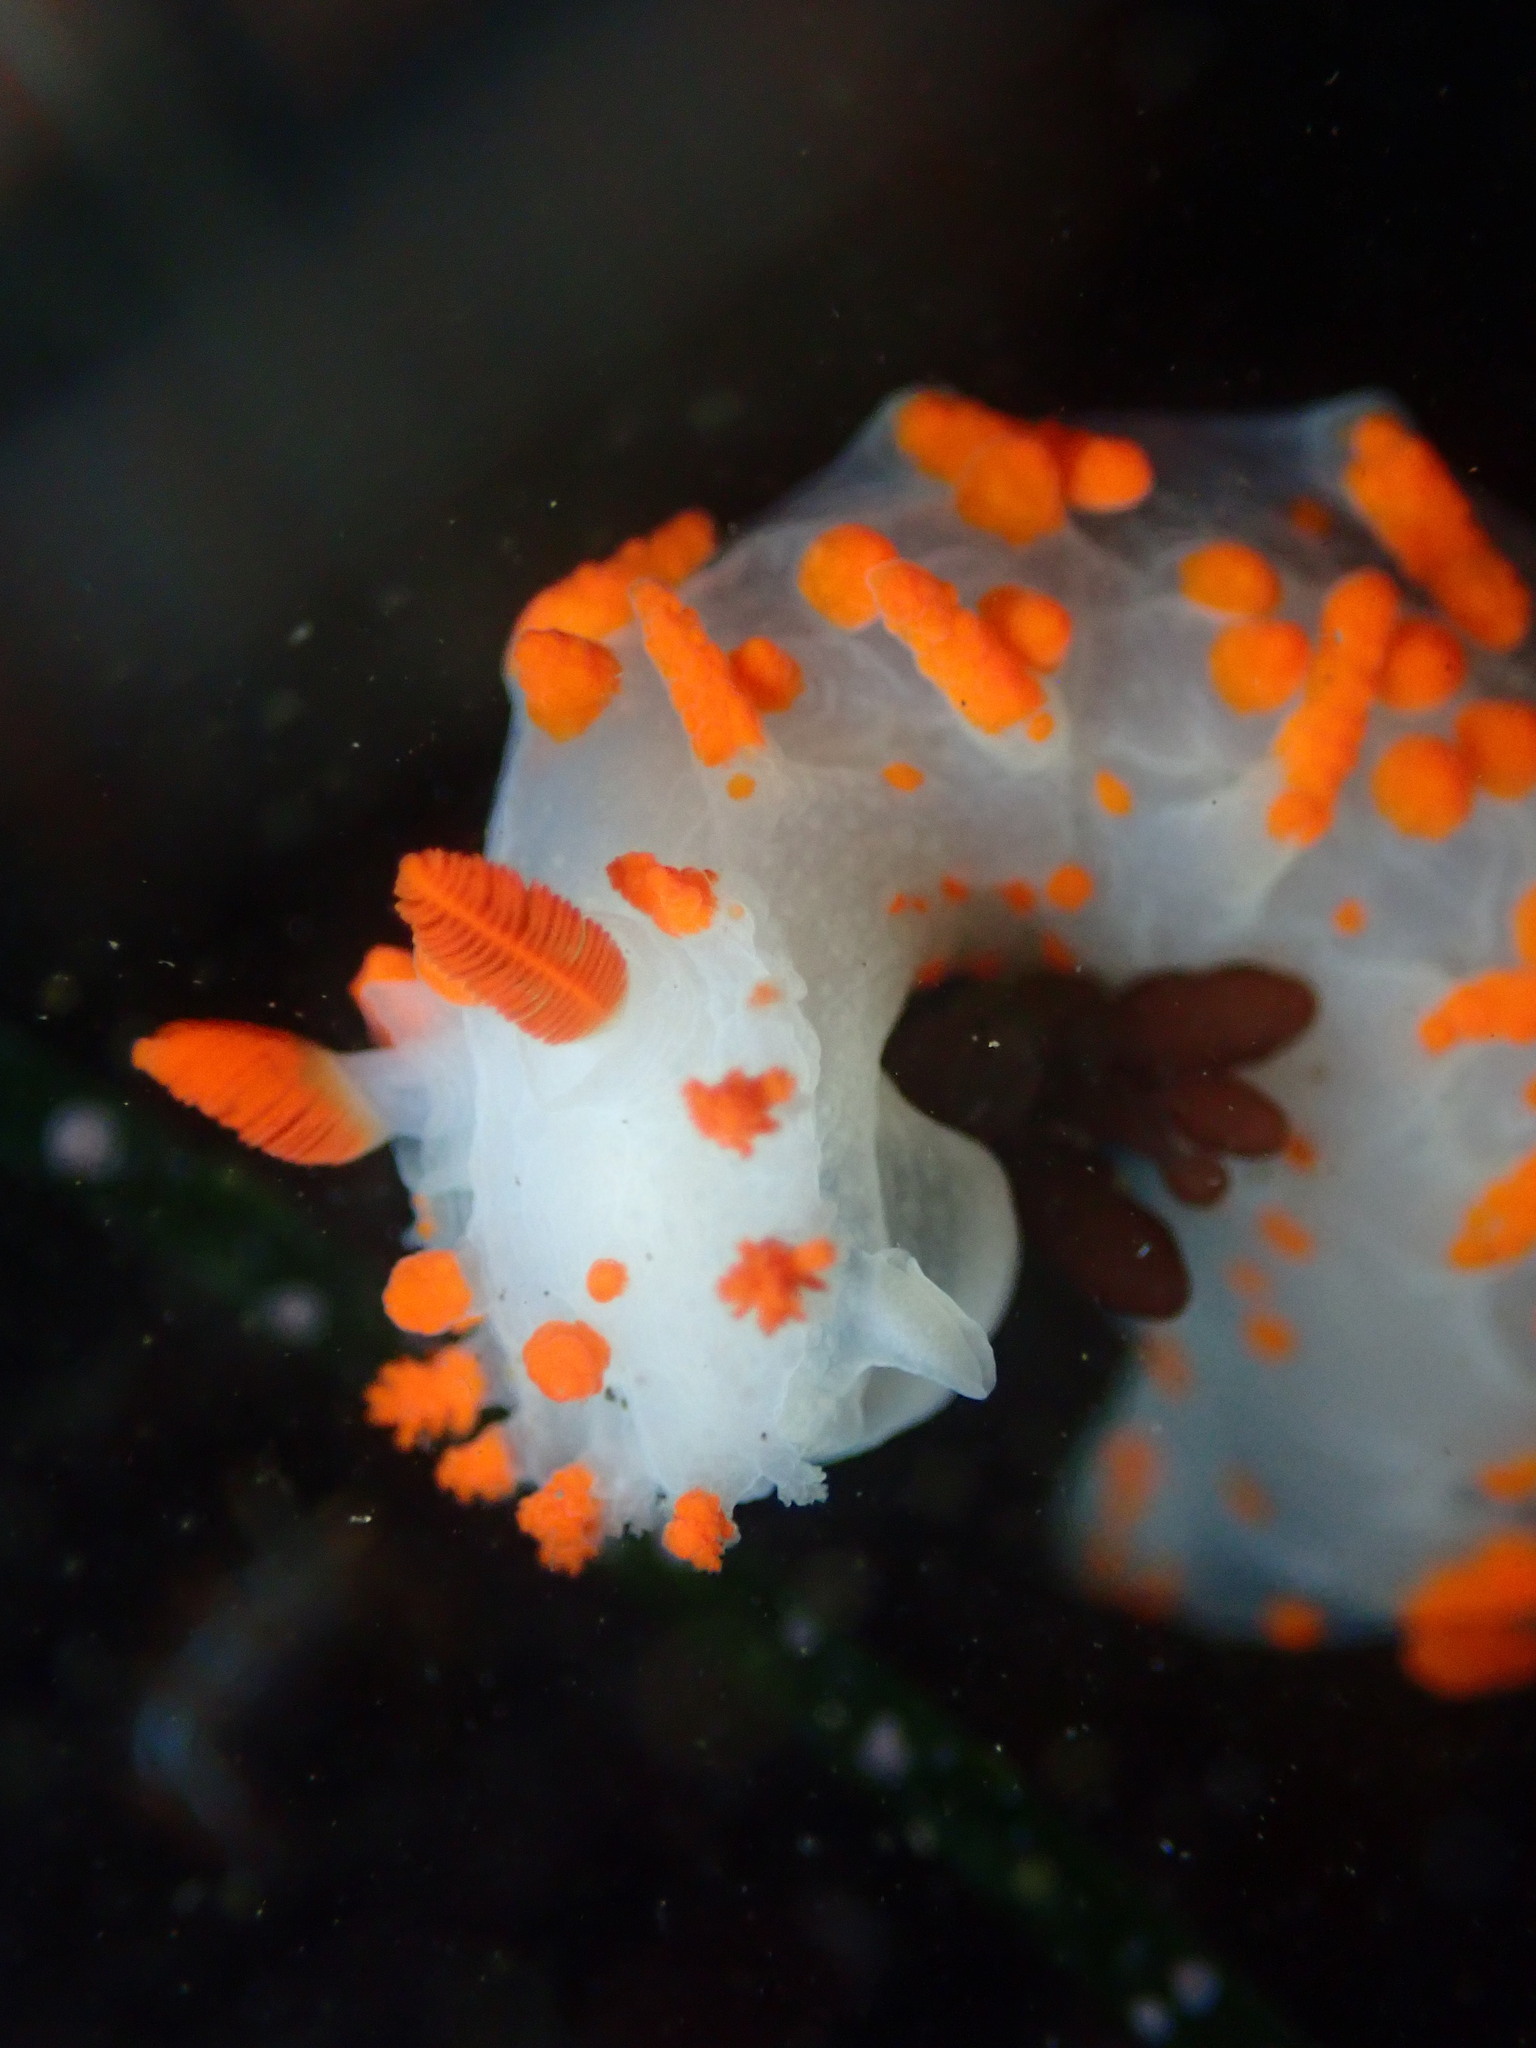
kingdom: Animalia
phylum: Mollusca
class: Gastropoda
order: Nudibranchia
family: Polyceridae
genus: Triopha
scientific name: Triopha catalinae
